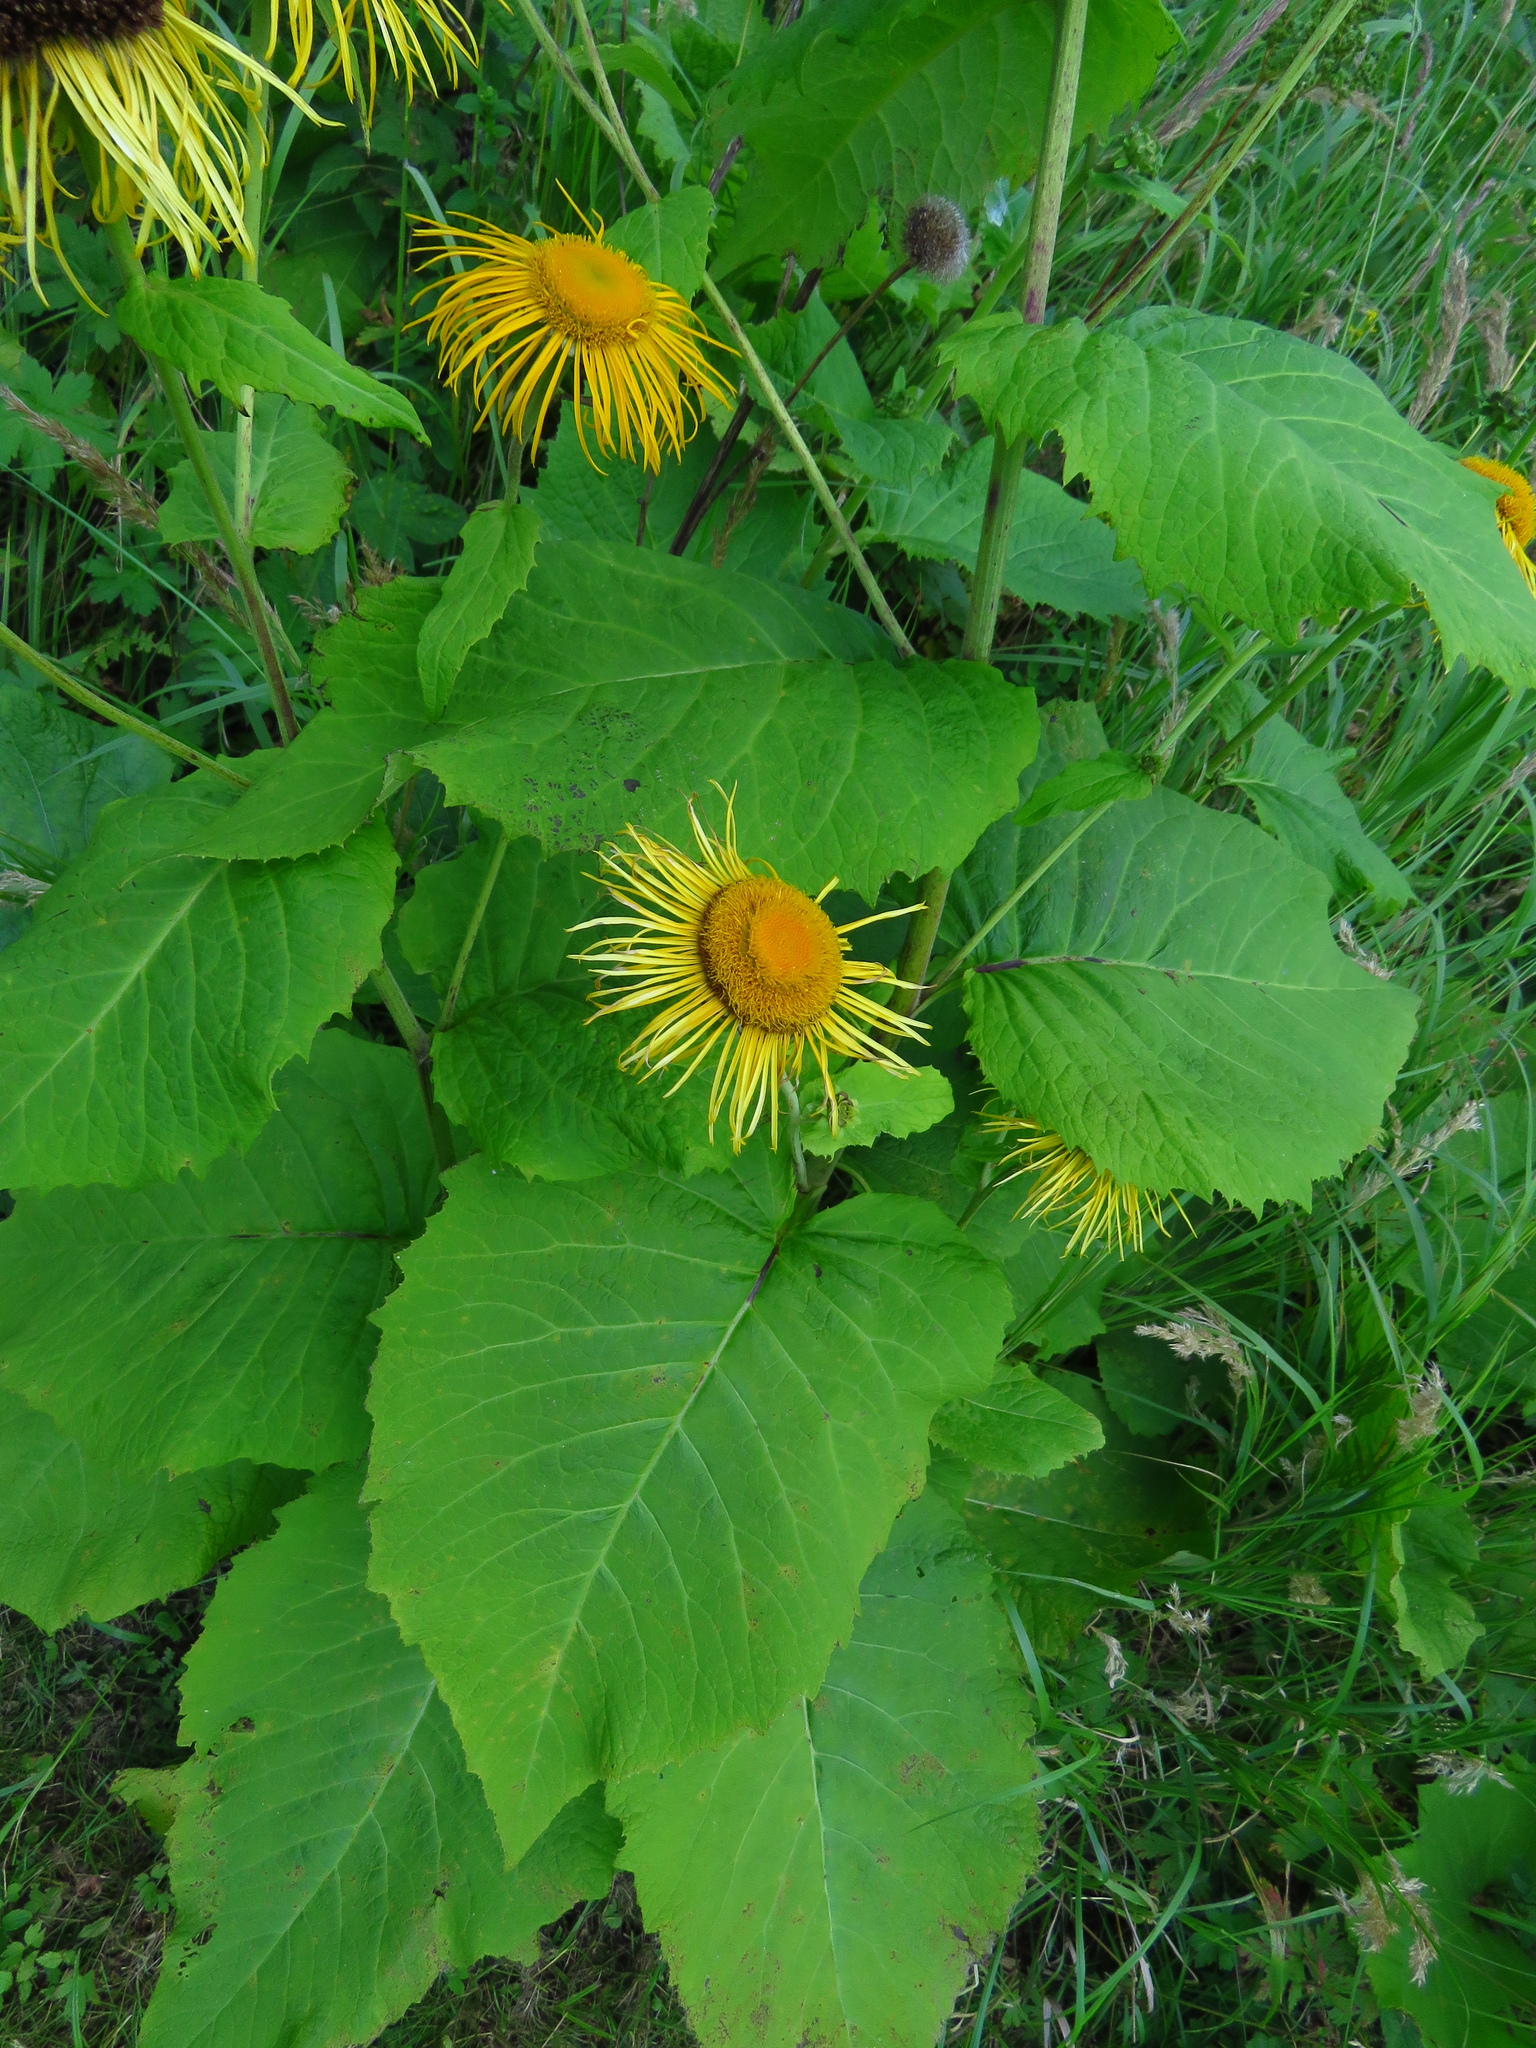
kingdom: Plantae
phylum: Tracheophyta
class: Magnoliopsida
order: Asterales
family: Asteraceae
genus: Telekia
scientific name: Telekia speciosa
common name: Yellow oxeye
